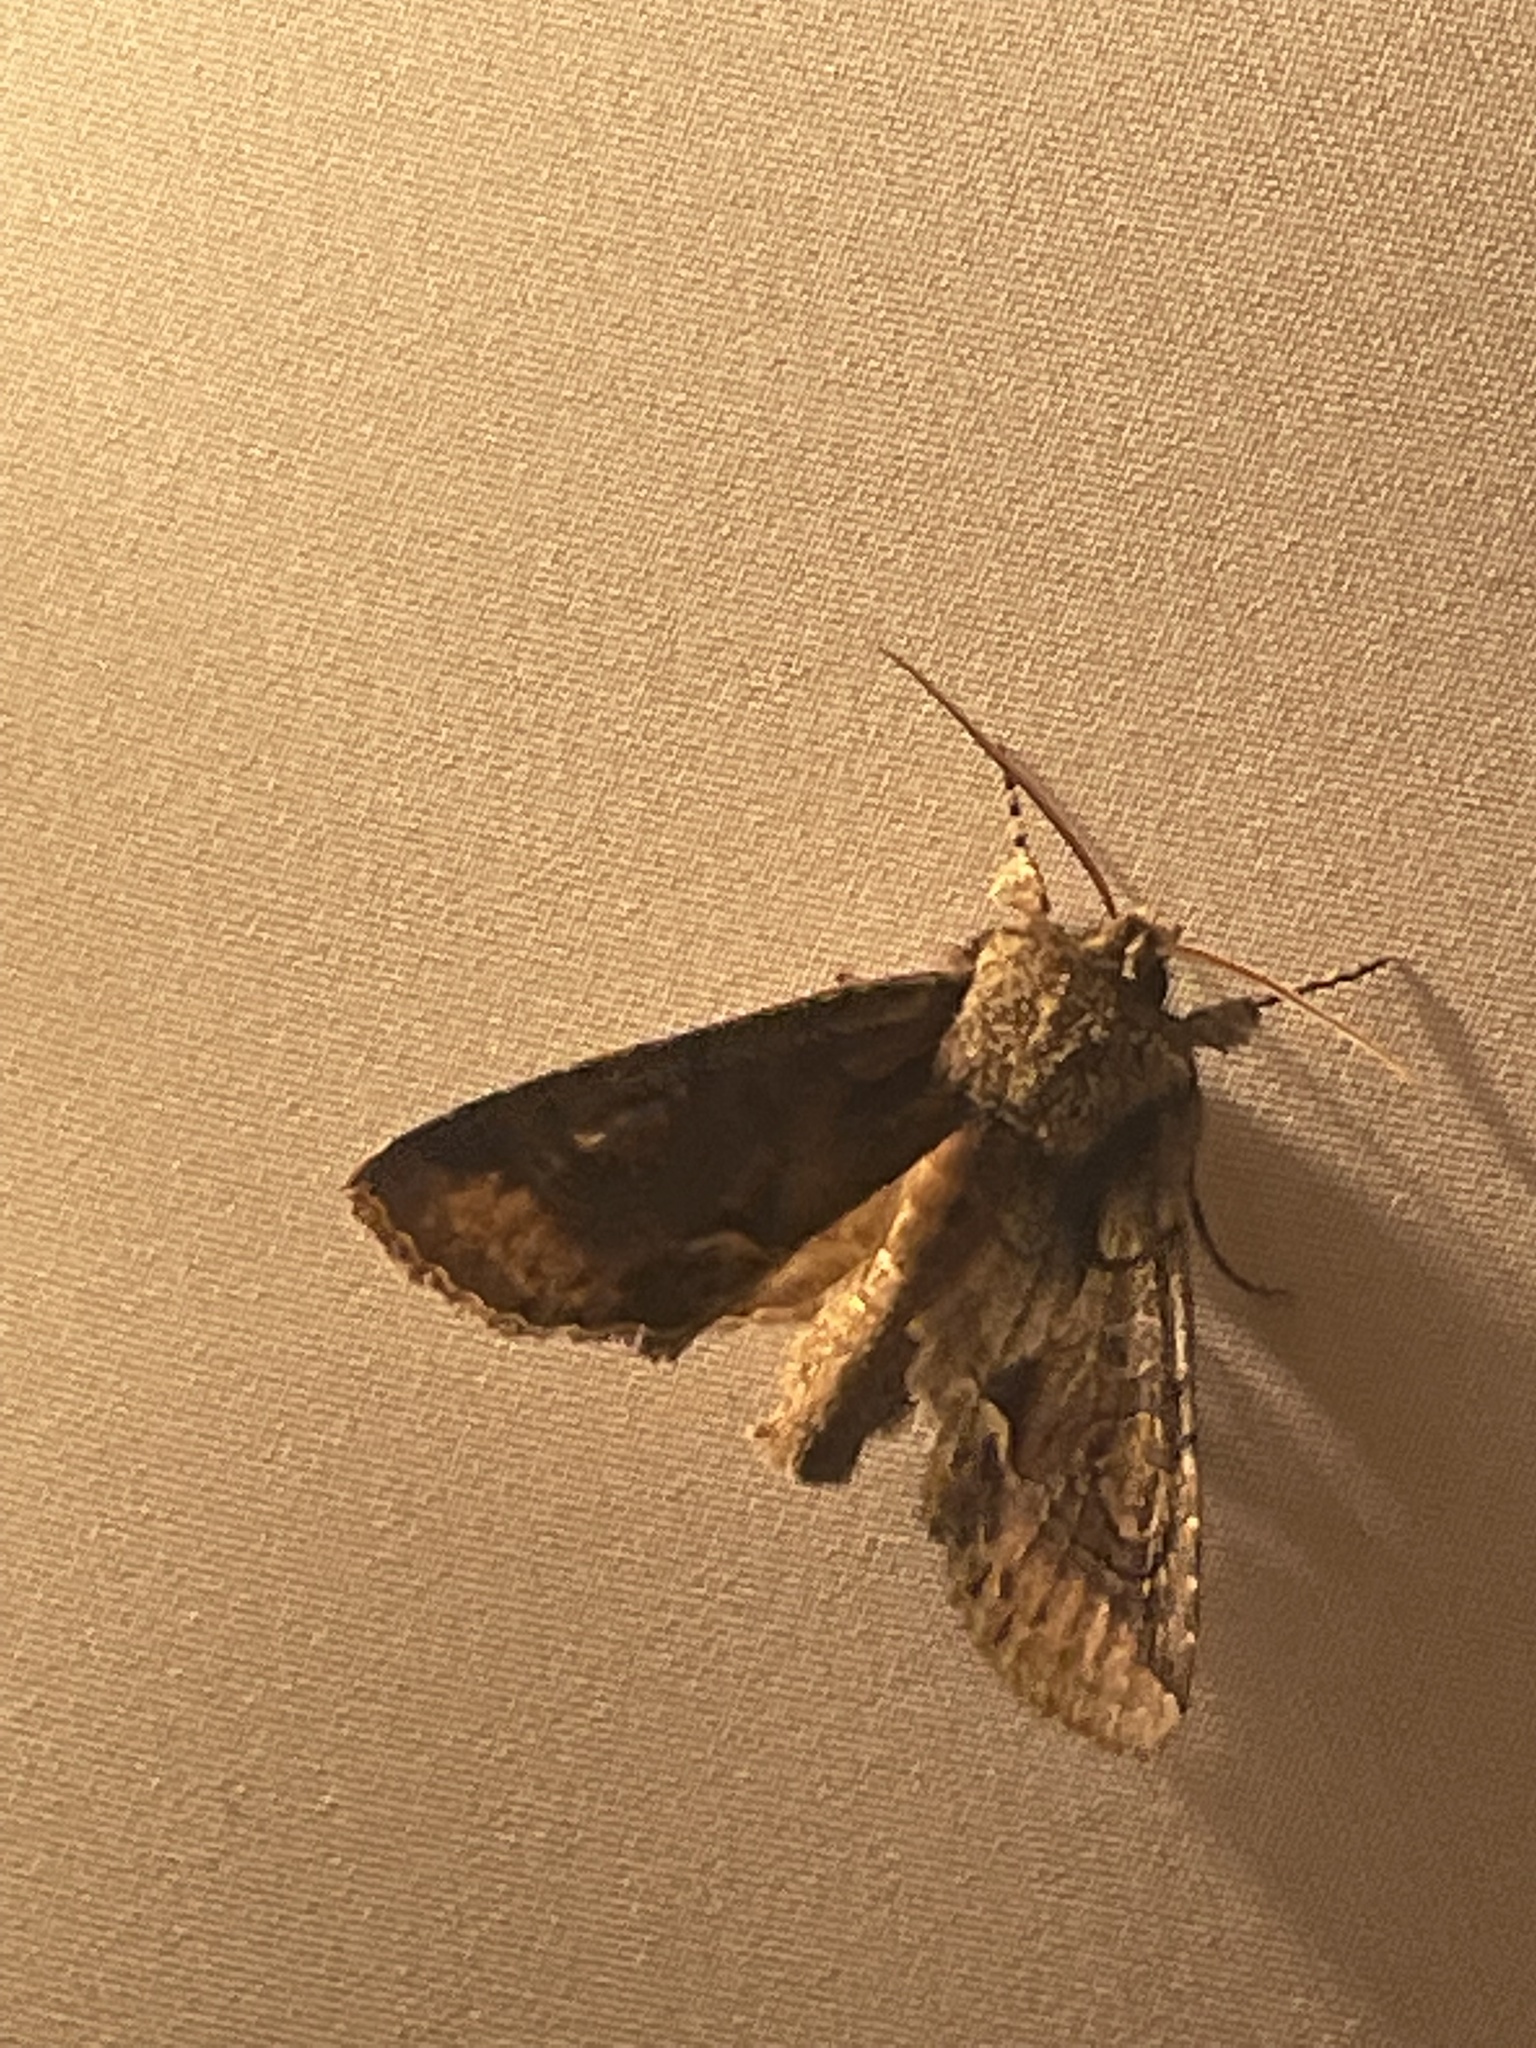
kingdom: Animalia
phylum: Arthropoda
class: Insecta
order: Lepidoptera
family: Noctuidae
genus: Allophyes
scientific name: Allophyes oxyacanthae
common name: Green-brindled crescent
